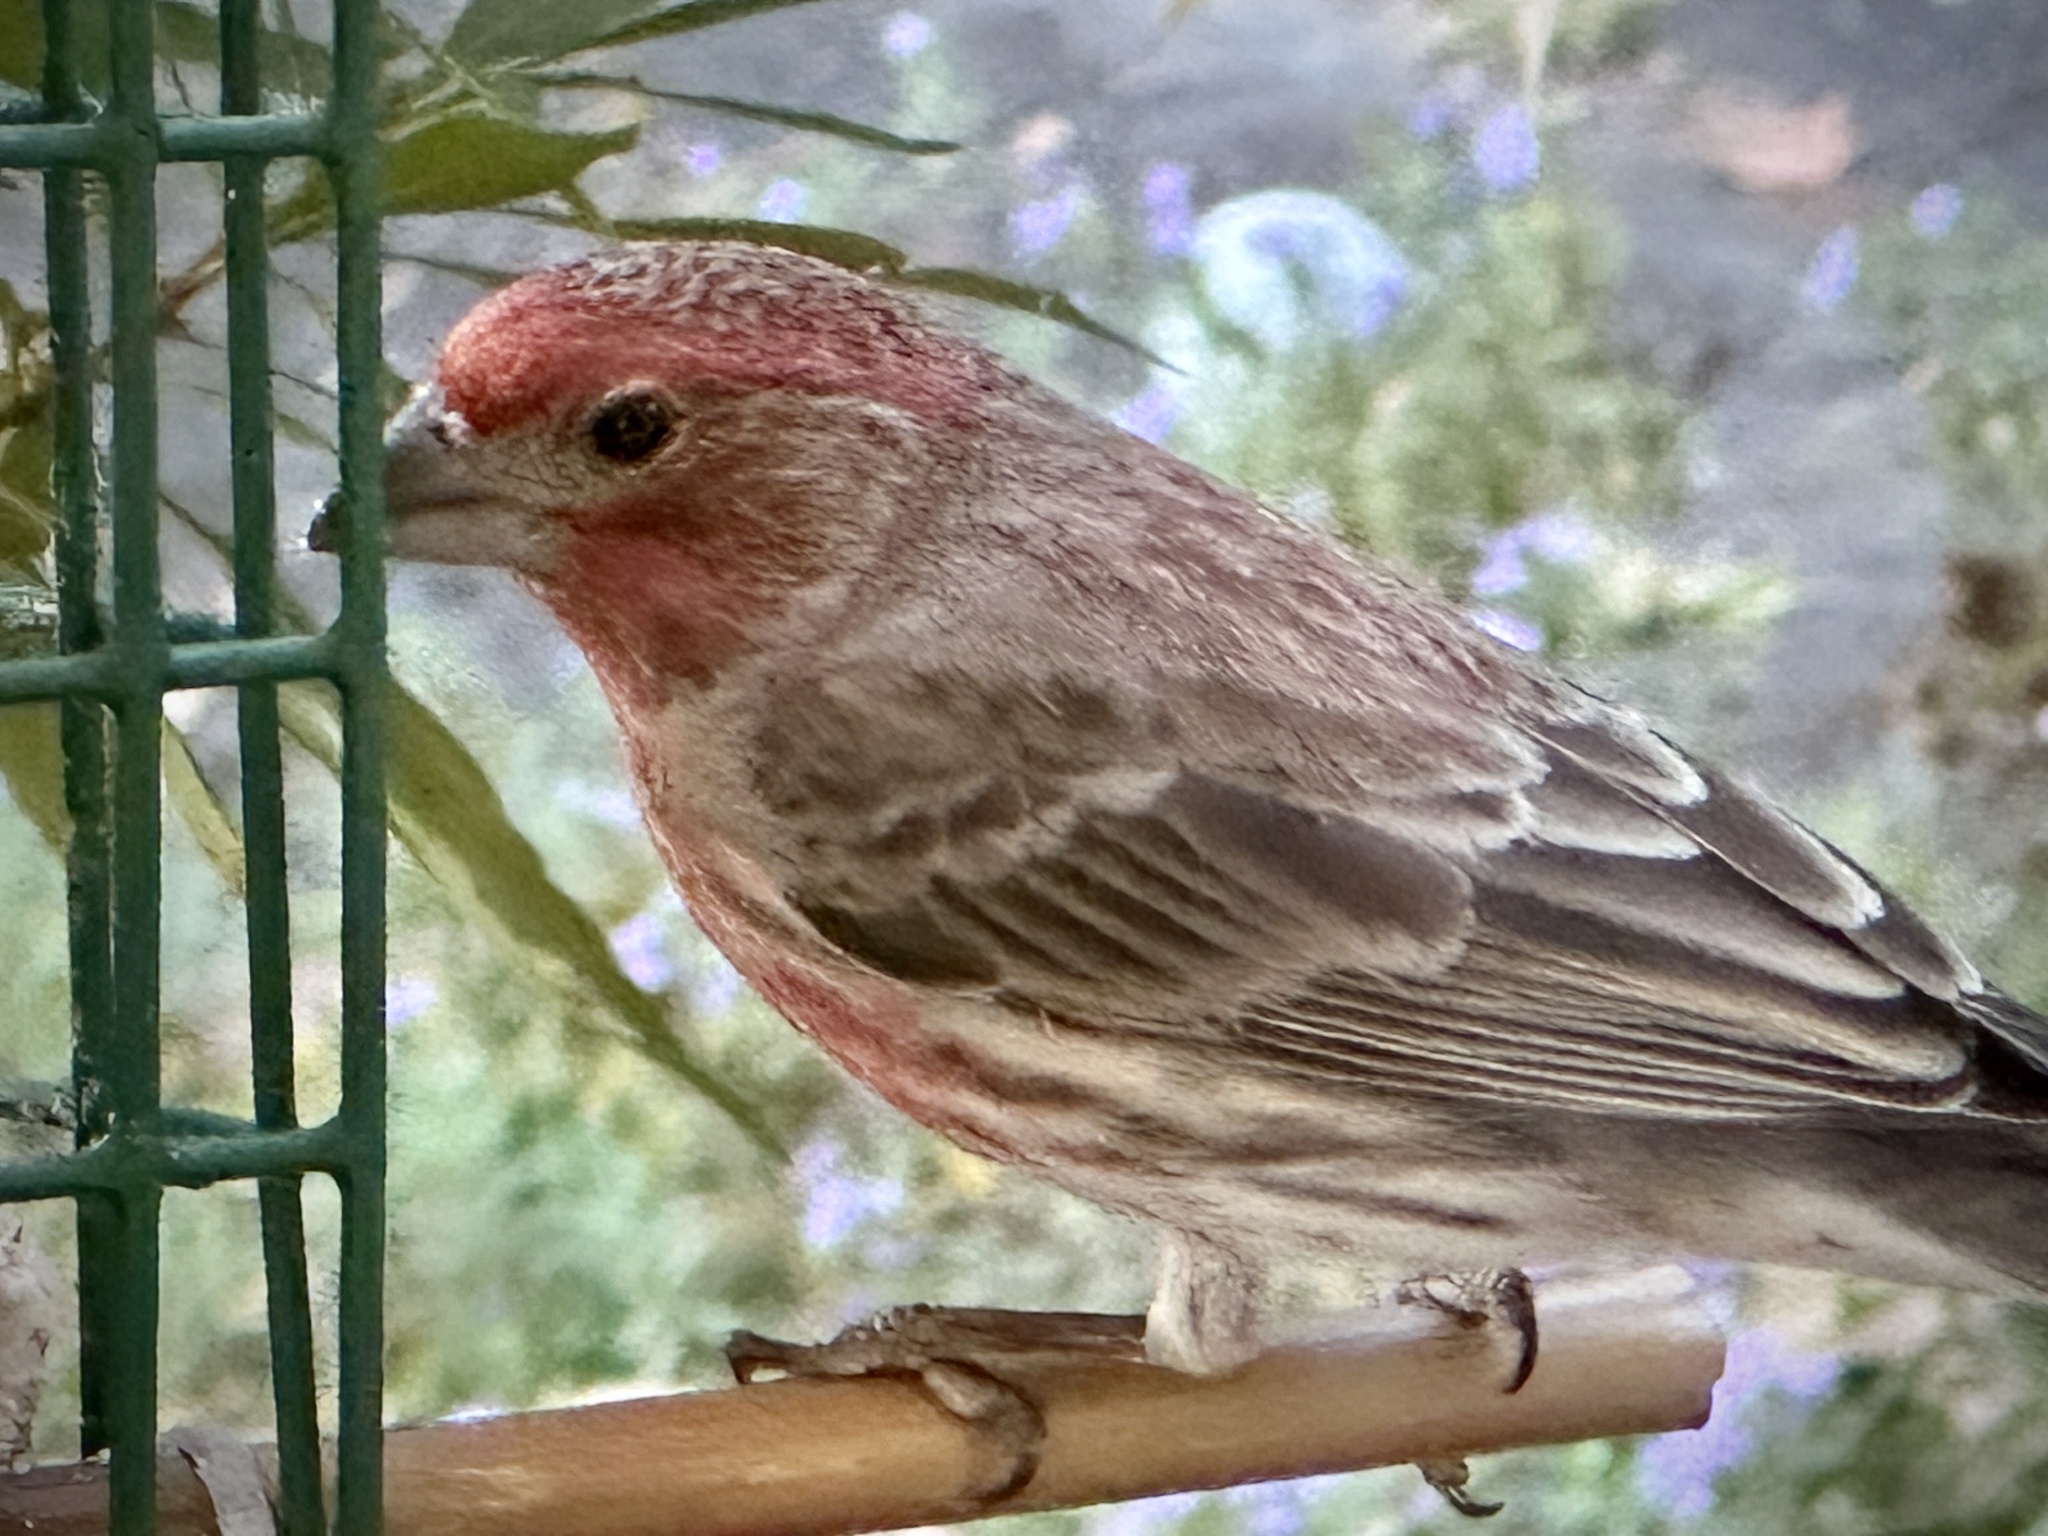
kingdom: Animalia
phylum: Chordata
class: Aves
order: Passeriformes
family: Fringillidae
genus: Haemorhous
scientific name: Haemorhous mexicanus
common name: House finch
